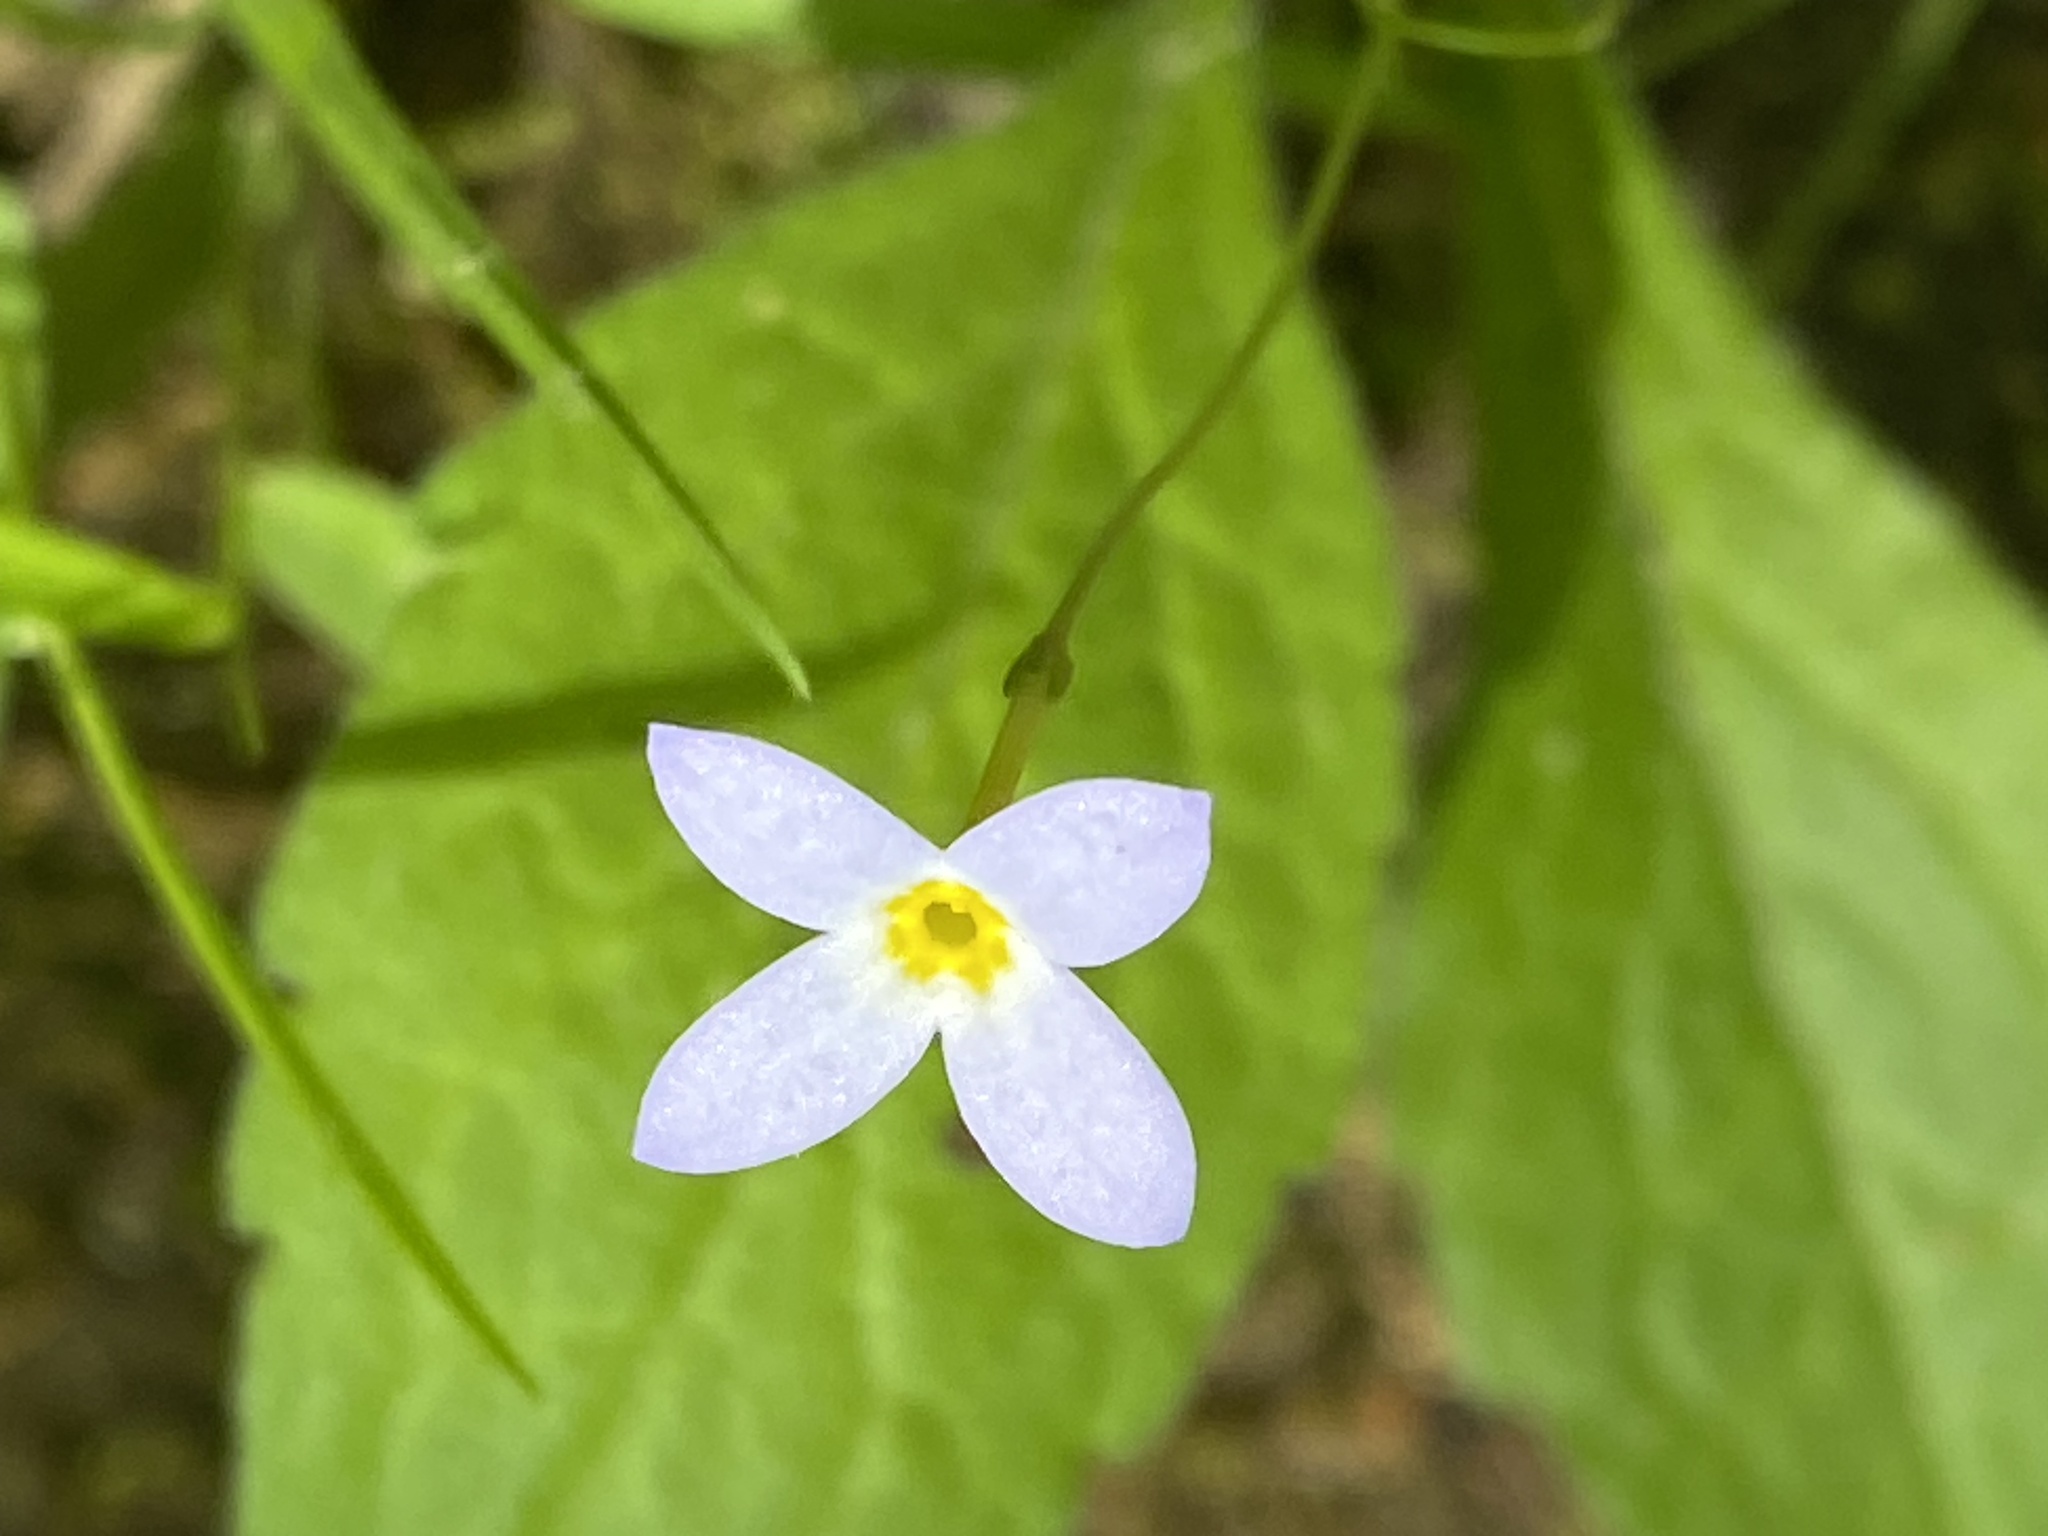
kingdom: Plantae
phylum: Tracheophyta
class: Magnoliopsida
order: Gentianales
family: Rubiaceae
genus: Houstonia
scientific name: Houstonia caerulea
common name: Bluets
